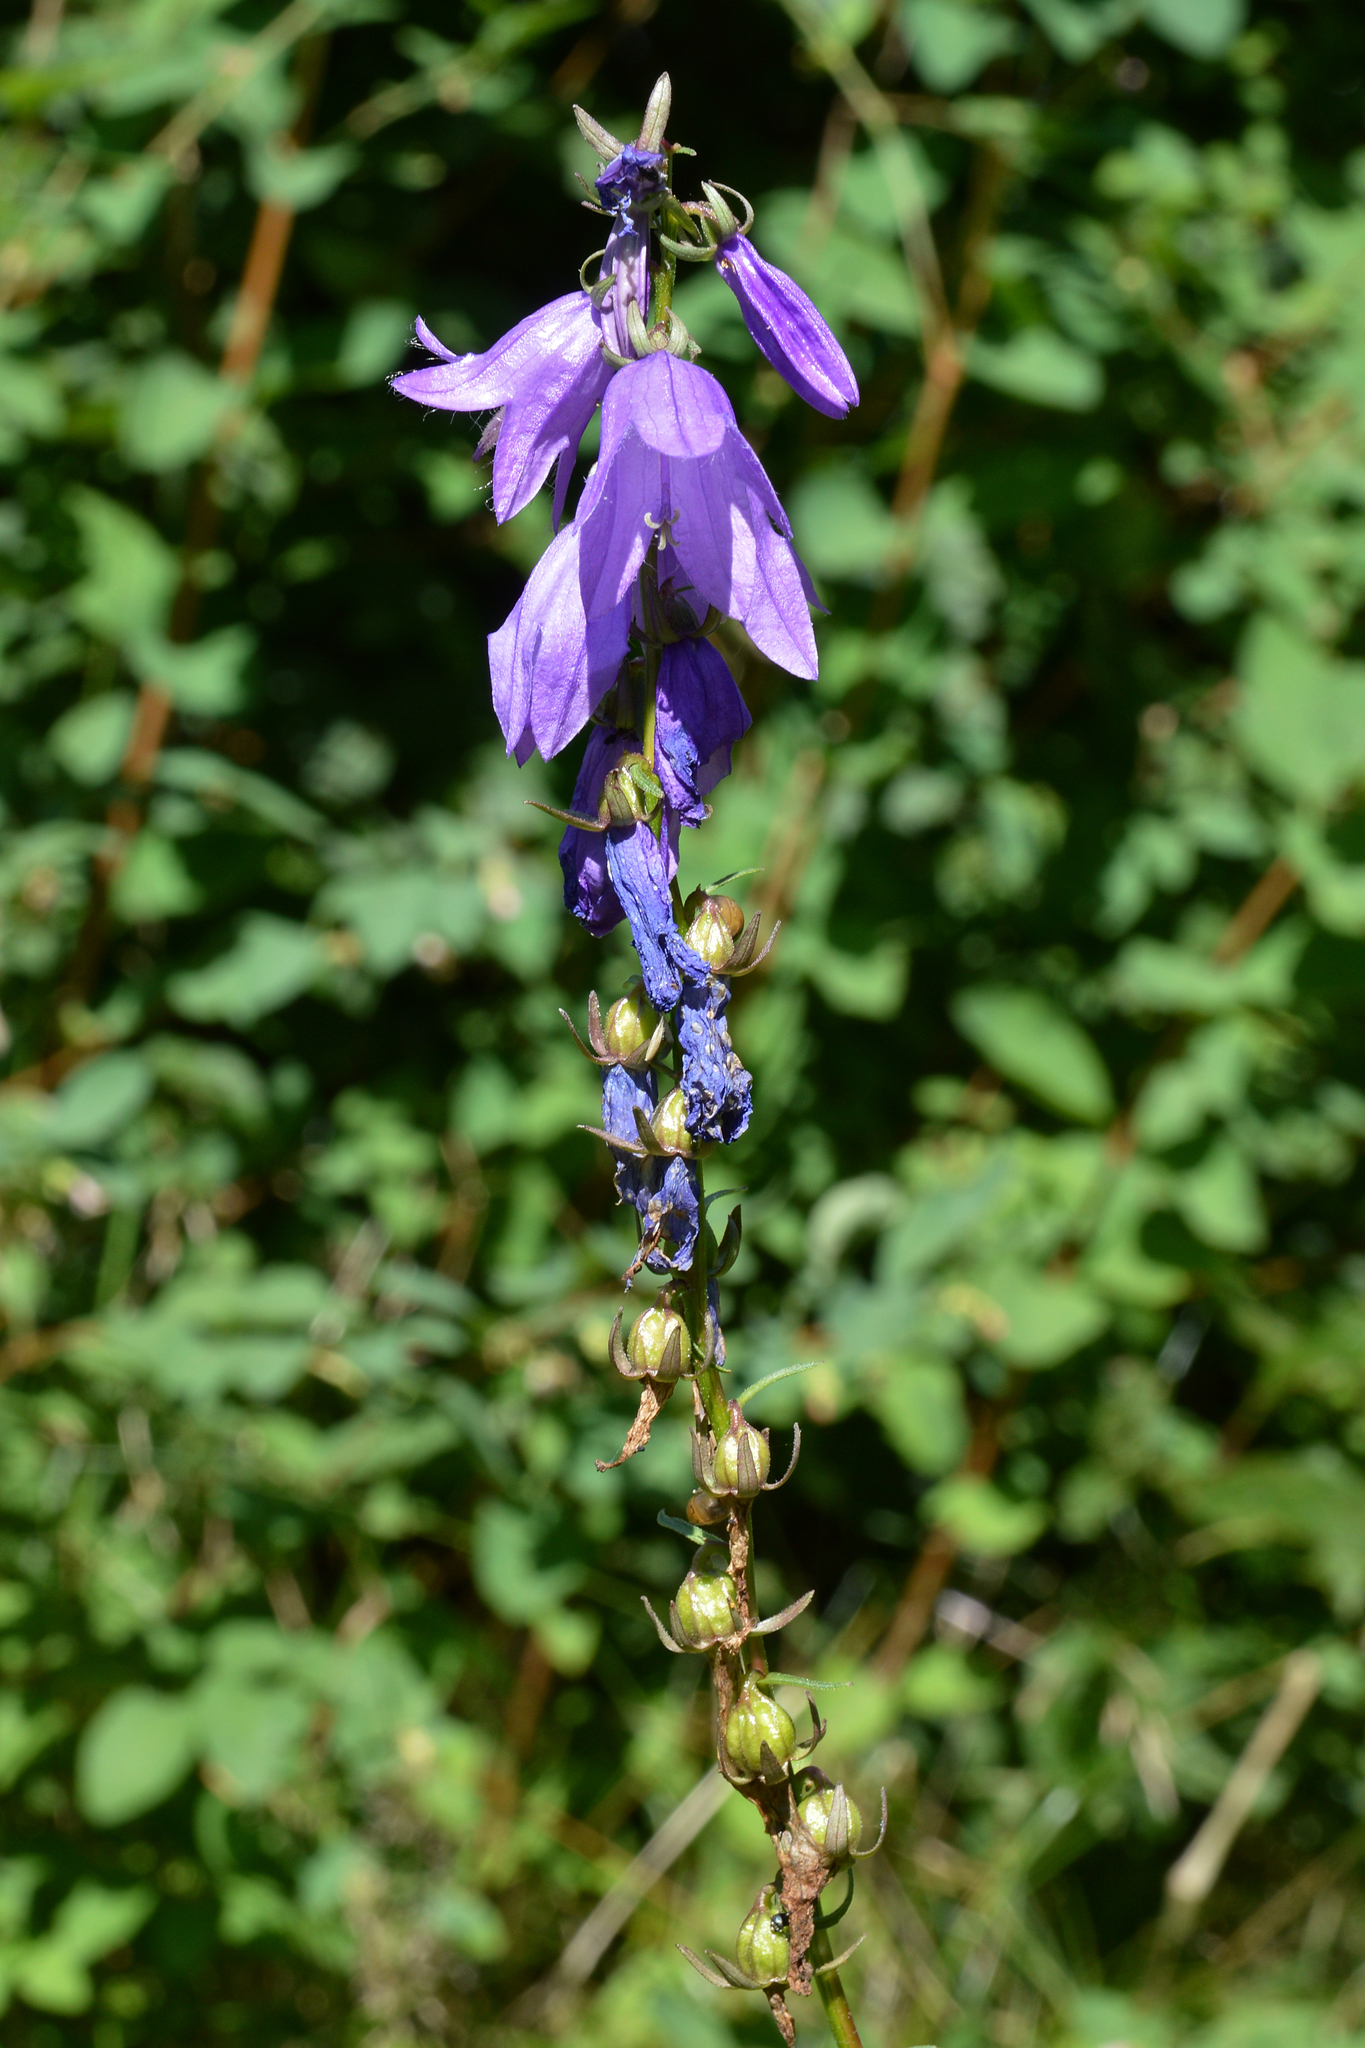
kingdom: Plantae
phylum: Tracheophyta
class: Magnoliopsida
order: Asterales
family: Campanulaceae
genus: Campanula
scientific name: Campanula rapunculoides
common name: Creeping bellflower
